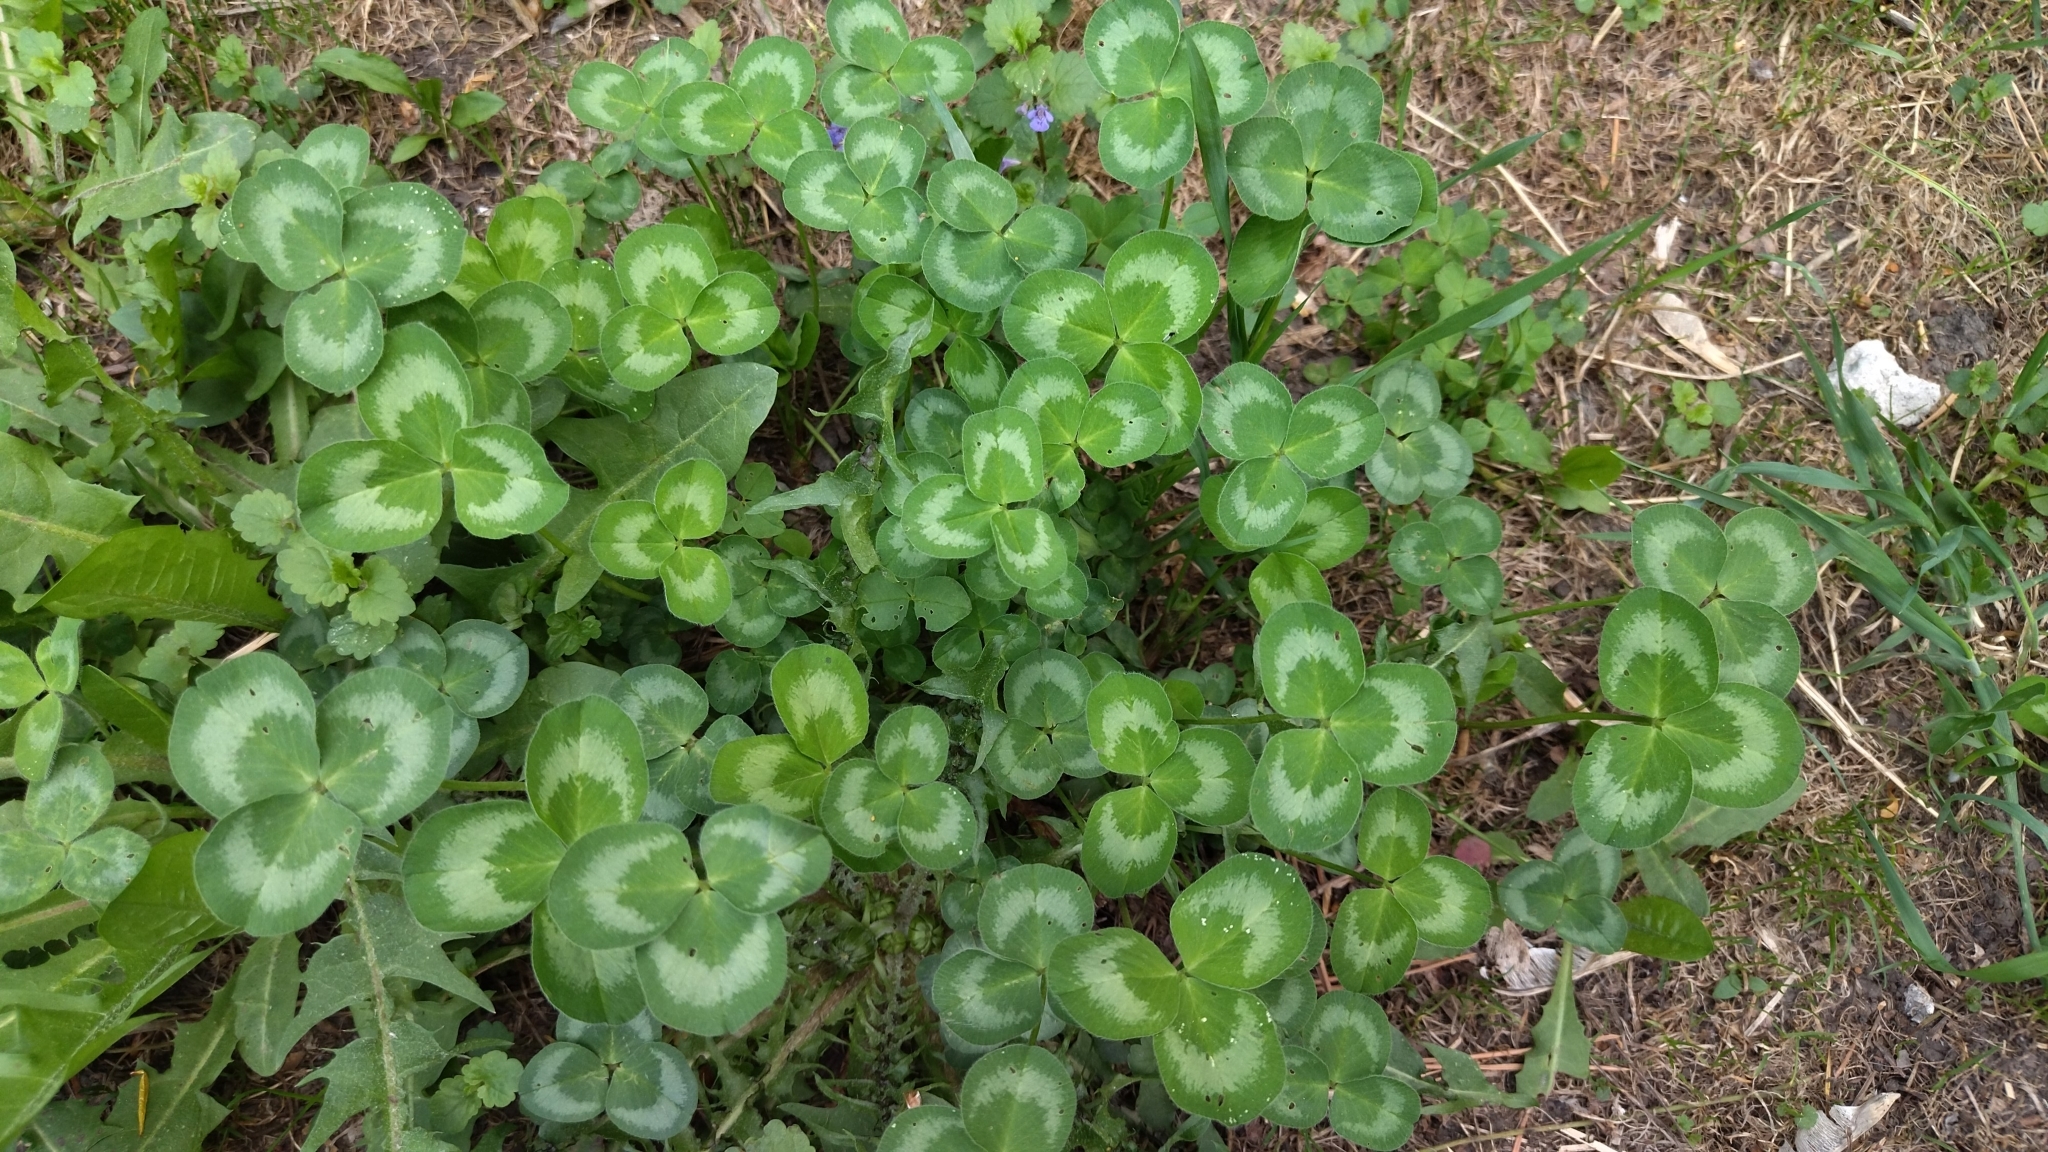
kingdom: Plantae
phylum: Tracheophyta
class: Magnoliopsida
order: Fabales
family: Fabaceae
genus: Trifolium
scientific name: Trifolium pratense
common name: Red clover
